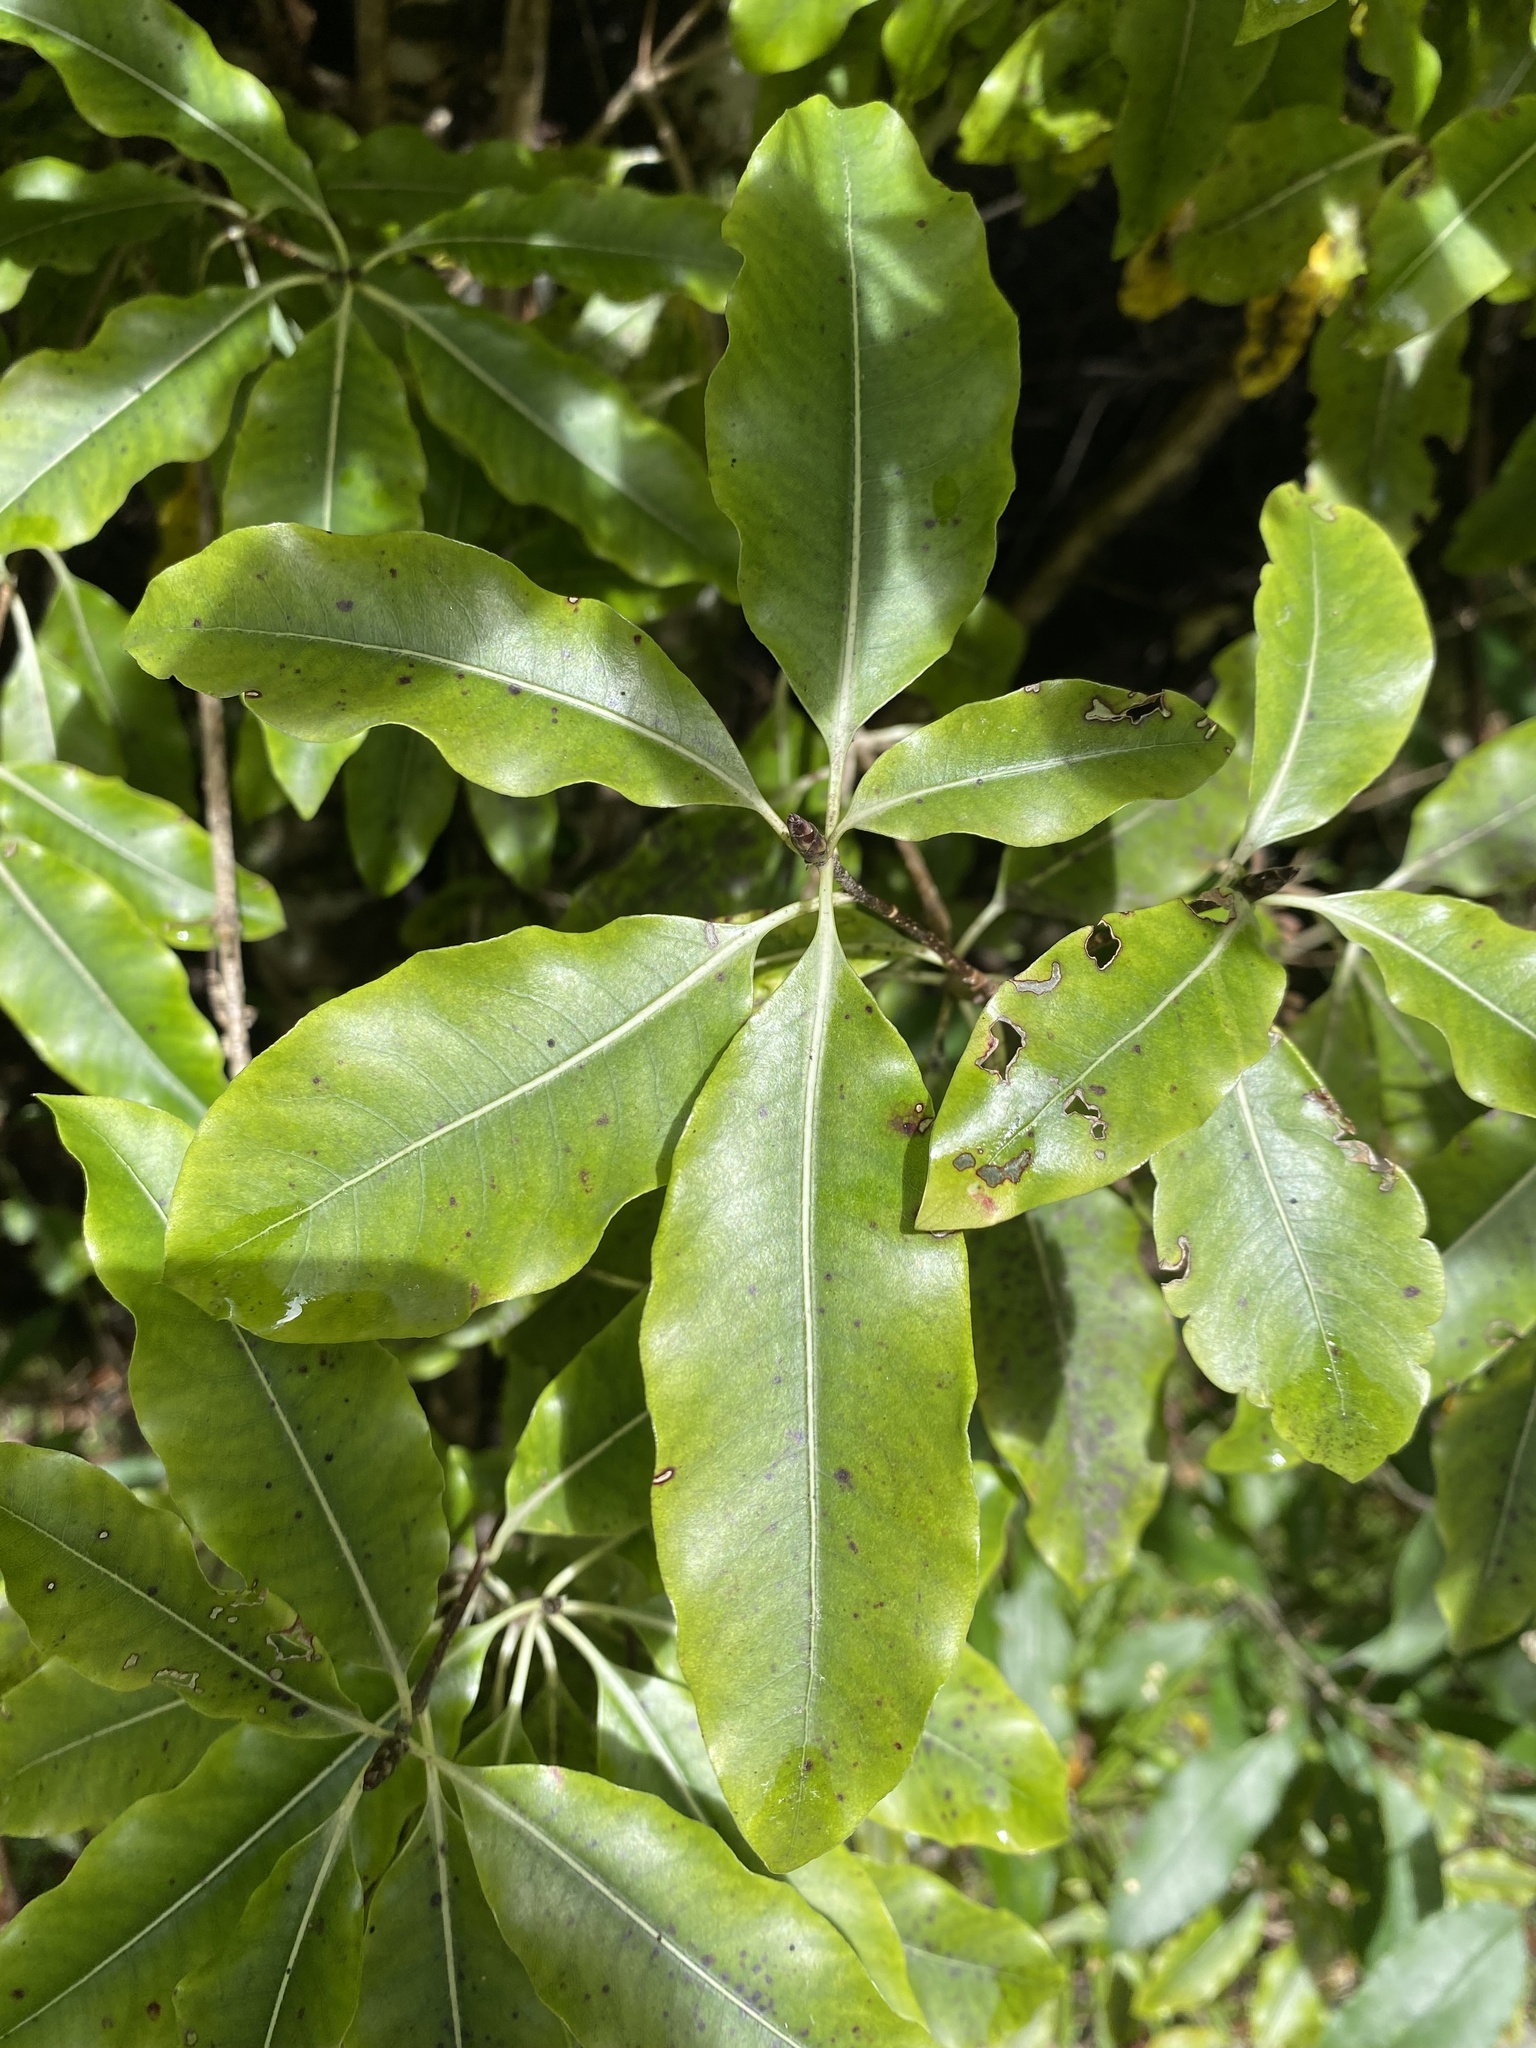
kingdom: Plantae
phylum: Tracheophyta
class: Magnoliopsida
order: Apiales
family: Pittosporaceae
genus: Pittosporum
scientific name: Pittosporum eugenioides
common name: Lemonwood
